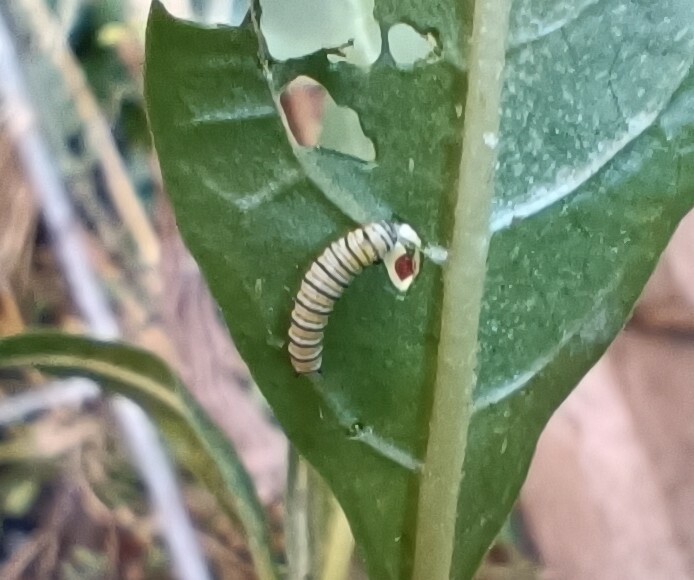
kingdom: Animalia
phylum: Arthropoda
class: Insecta
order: Lepidoptera
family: Nymphalidae
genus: Danaus
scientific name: Danaus plexippus
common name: Monarch
